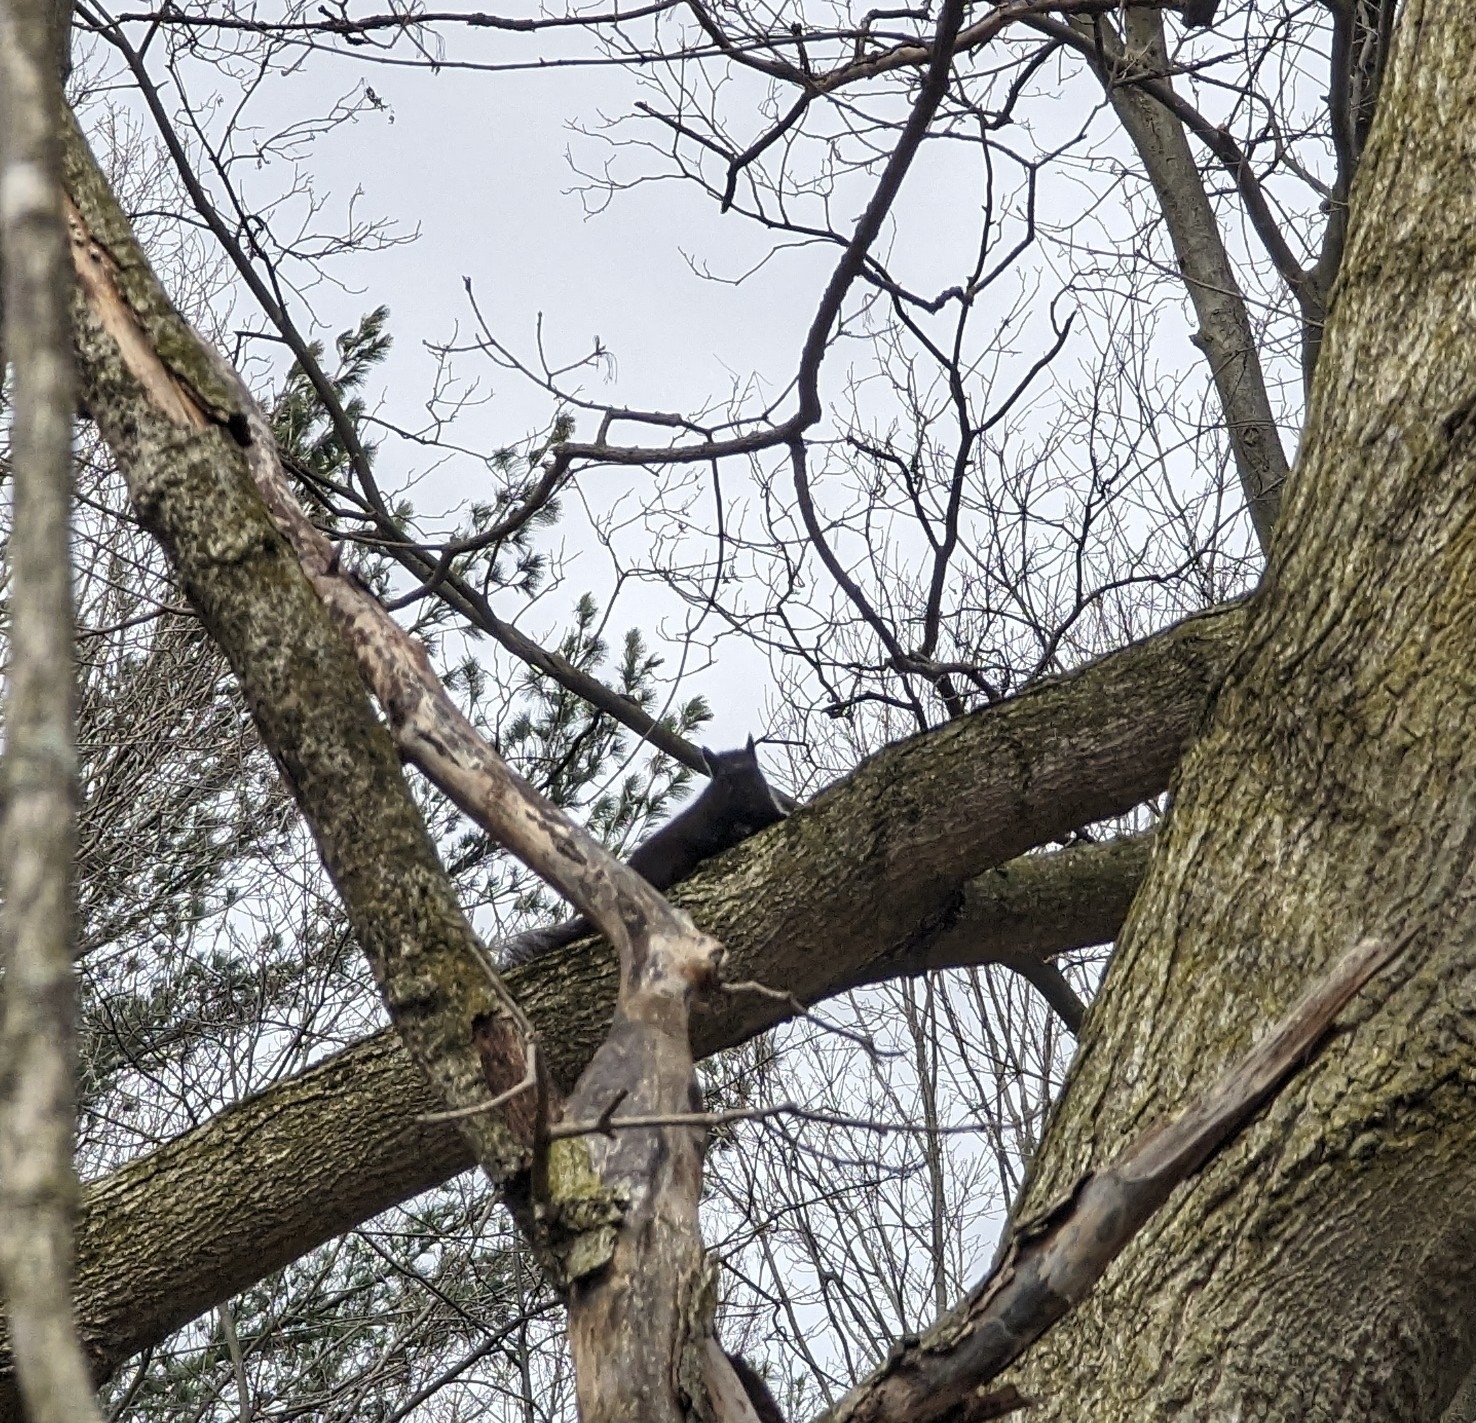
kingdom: Animalia
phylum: Chordata
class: Mammalia
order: Rodentia
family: Sciuridae
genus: Sciurus
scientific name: Sciurus carolinensis
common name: Eastern gray squirrel
